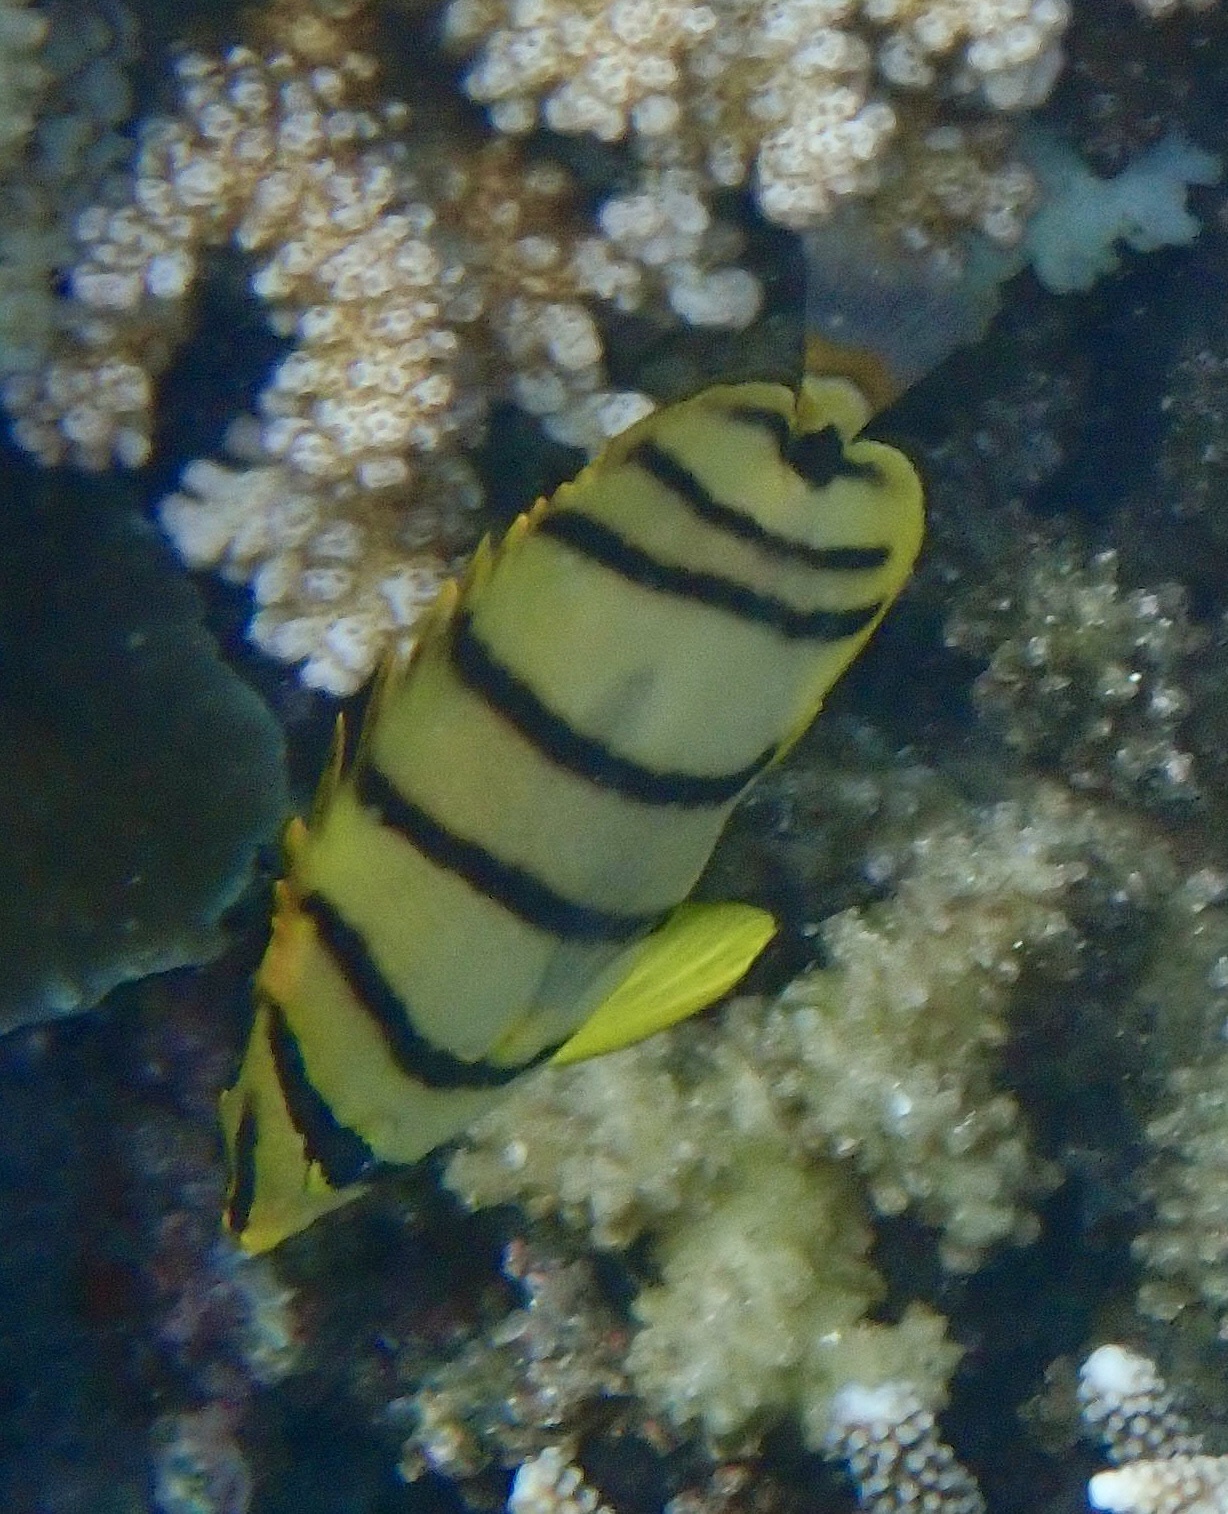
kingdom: Animalia
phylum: Chordata
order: Perciformes
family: Chaetodontidae
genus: Chaetodon
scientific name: Chaetodon octofasciatus
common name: Eightband butterflyfish
